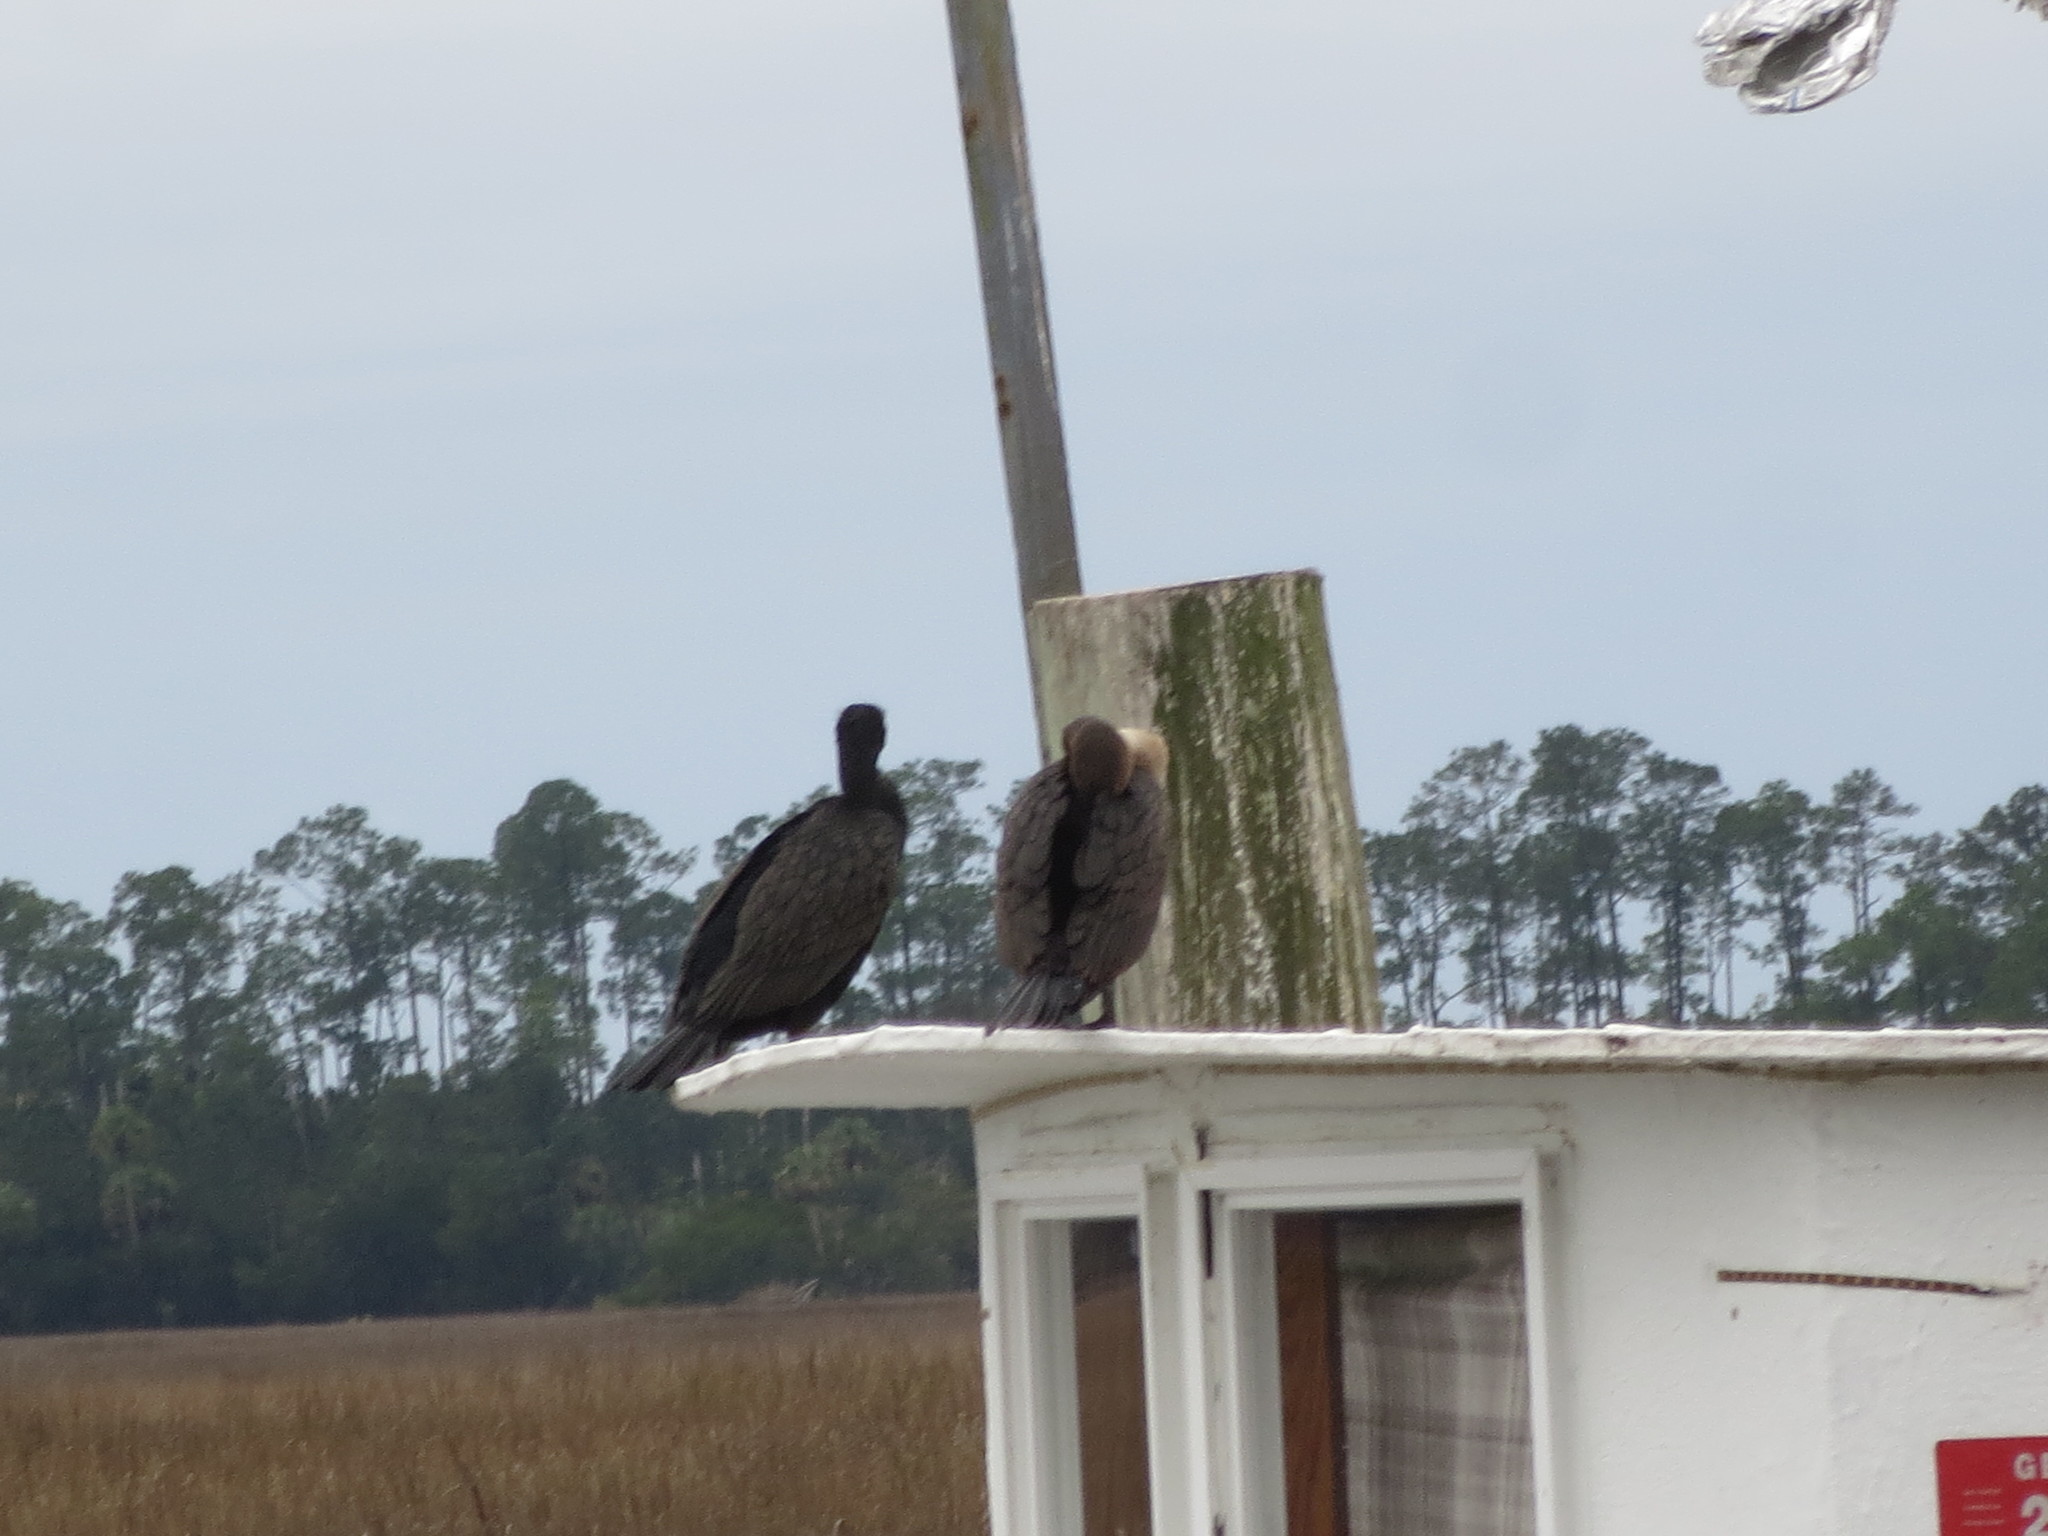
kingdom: Animalia
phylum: Chordata
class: Aves
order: Suliformes
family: Phalacrocoracidae
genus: Phalacrocorax
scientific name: Phalacrocorax auritus
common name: Double-crested cormorant
